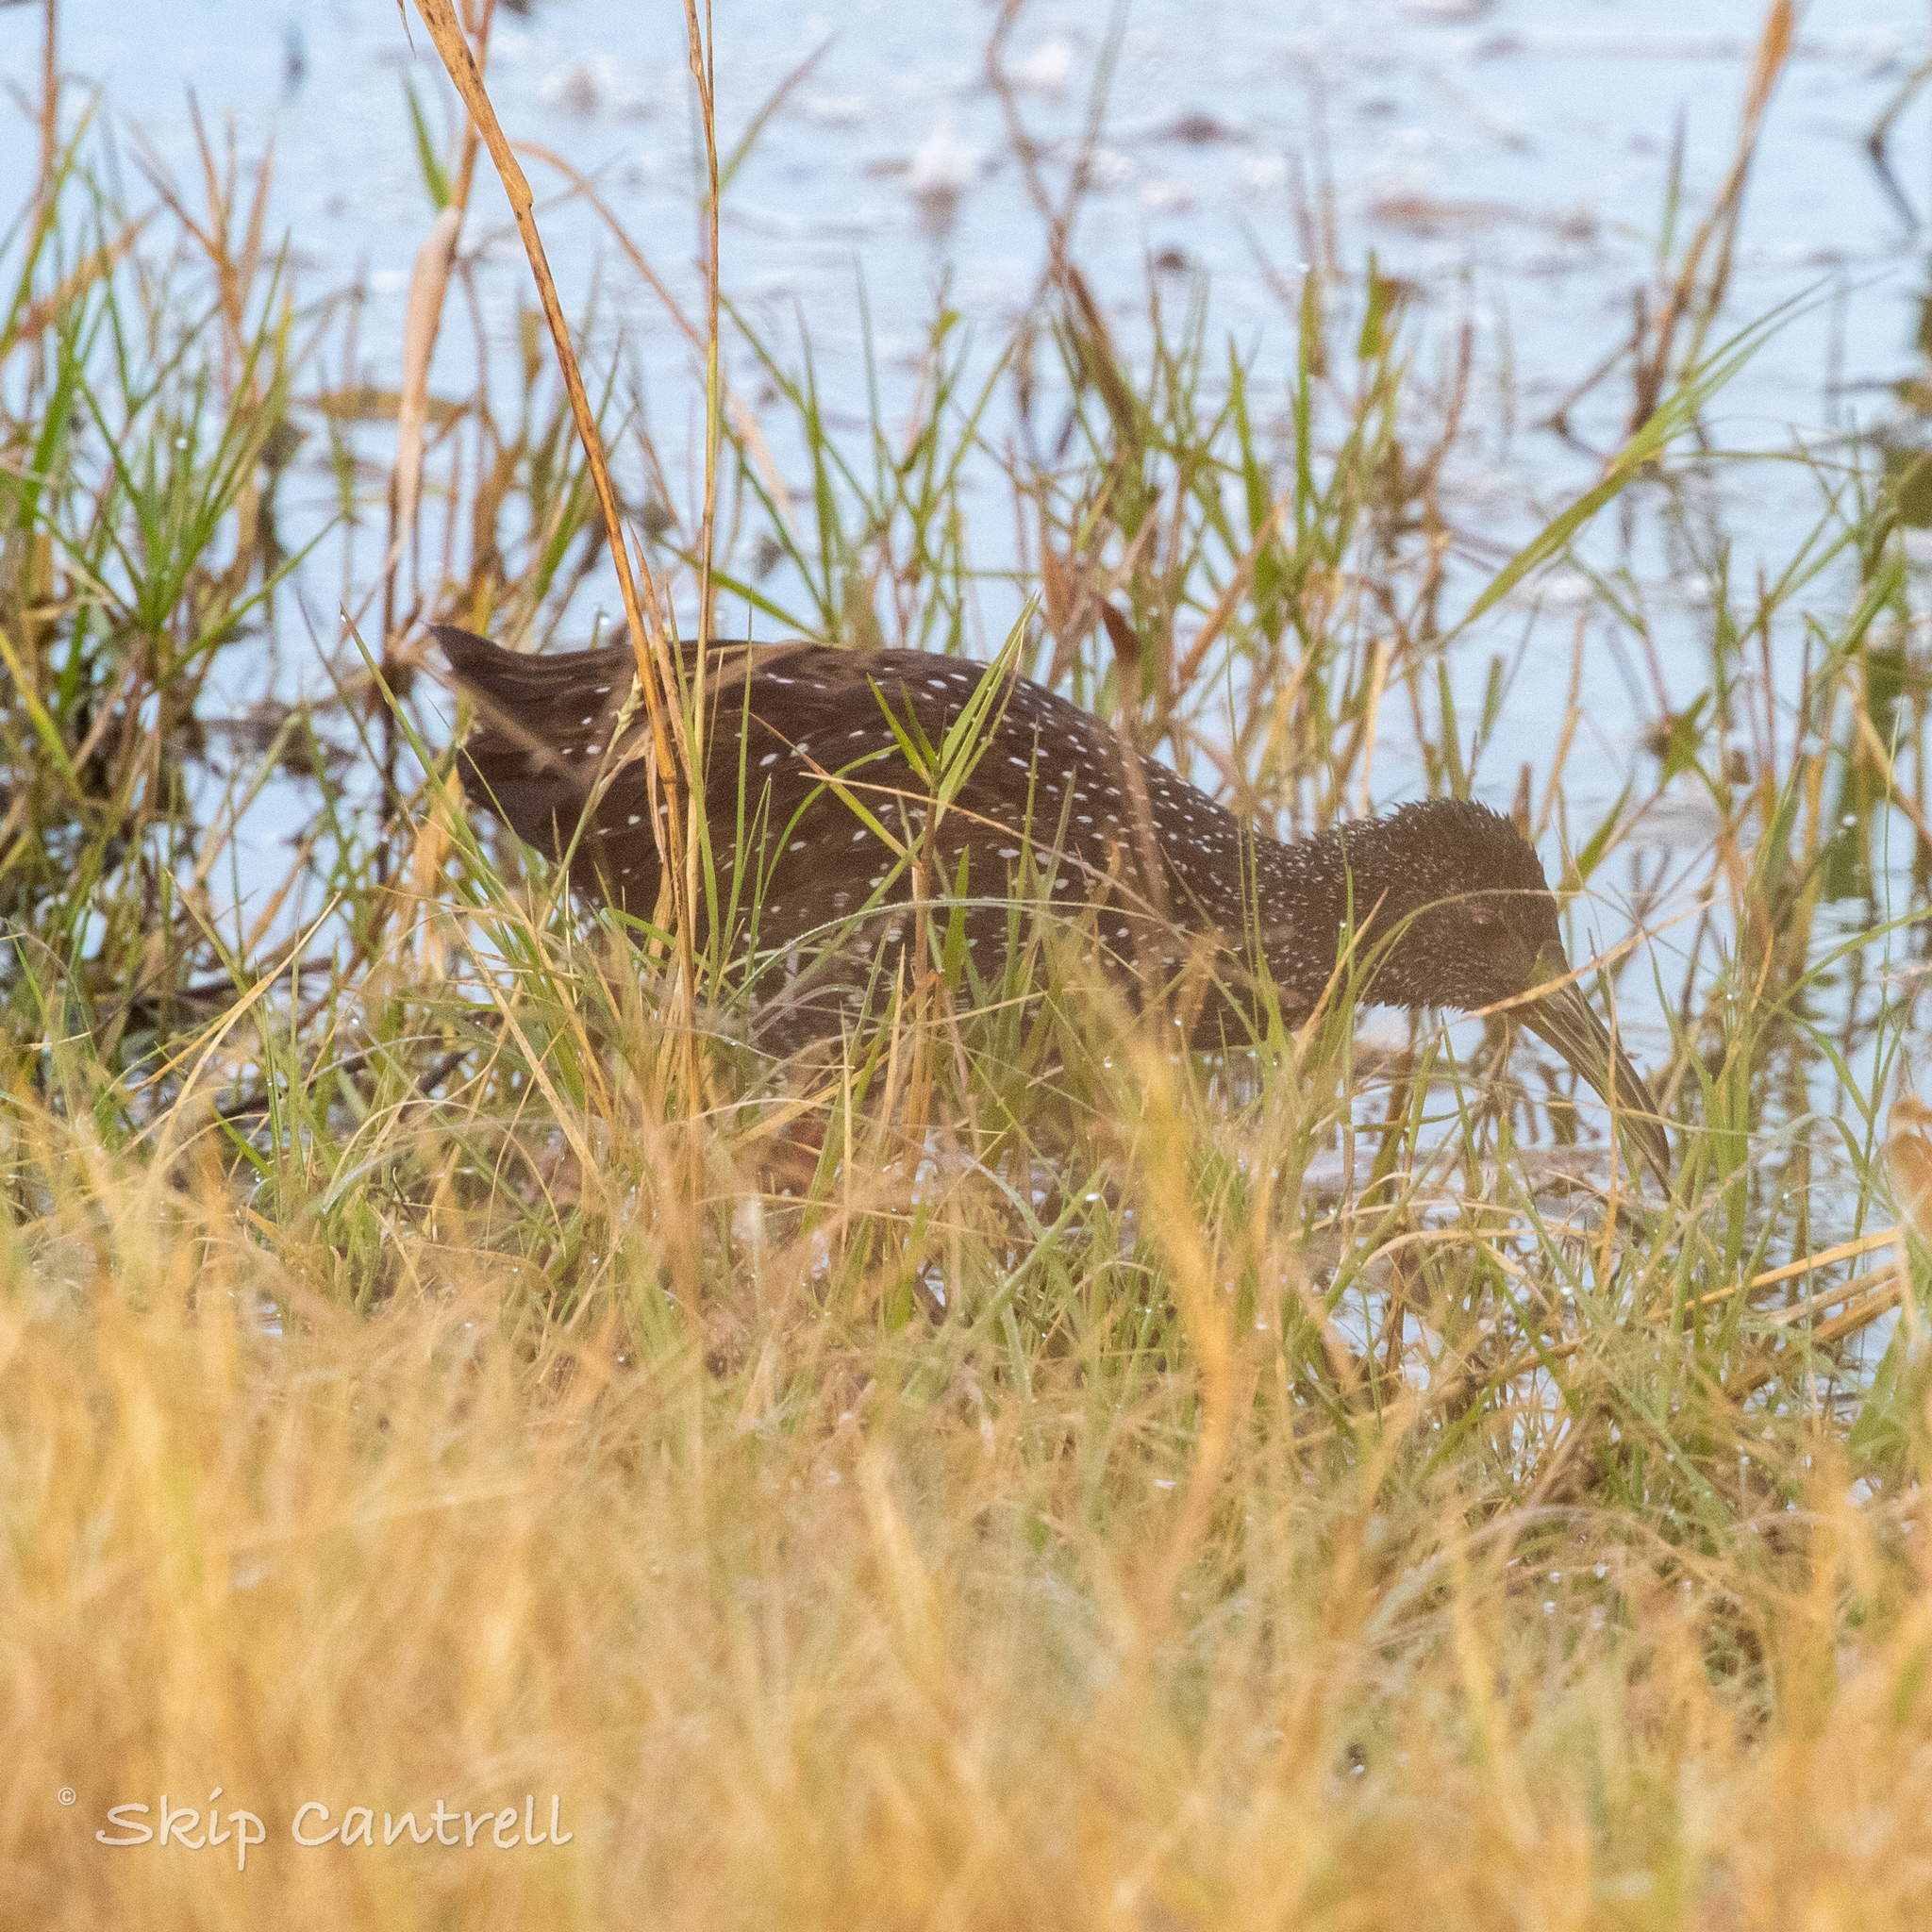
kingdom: Animalia
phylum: Chordata
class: Aves
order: Gruiformes
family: Rallidae
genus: Pardirallus
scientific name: Pardirallus maculatus
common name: Spotted rail
